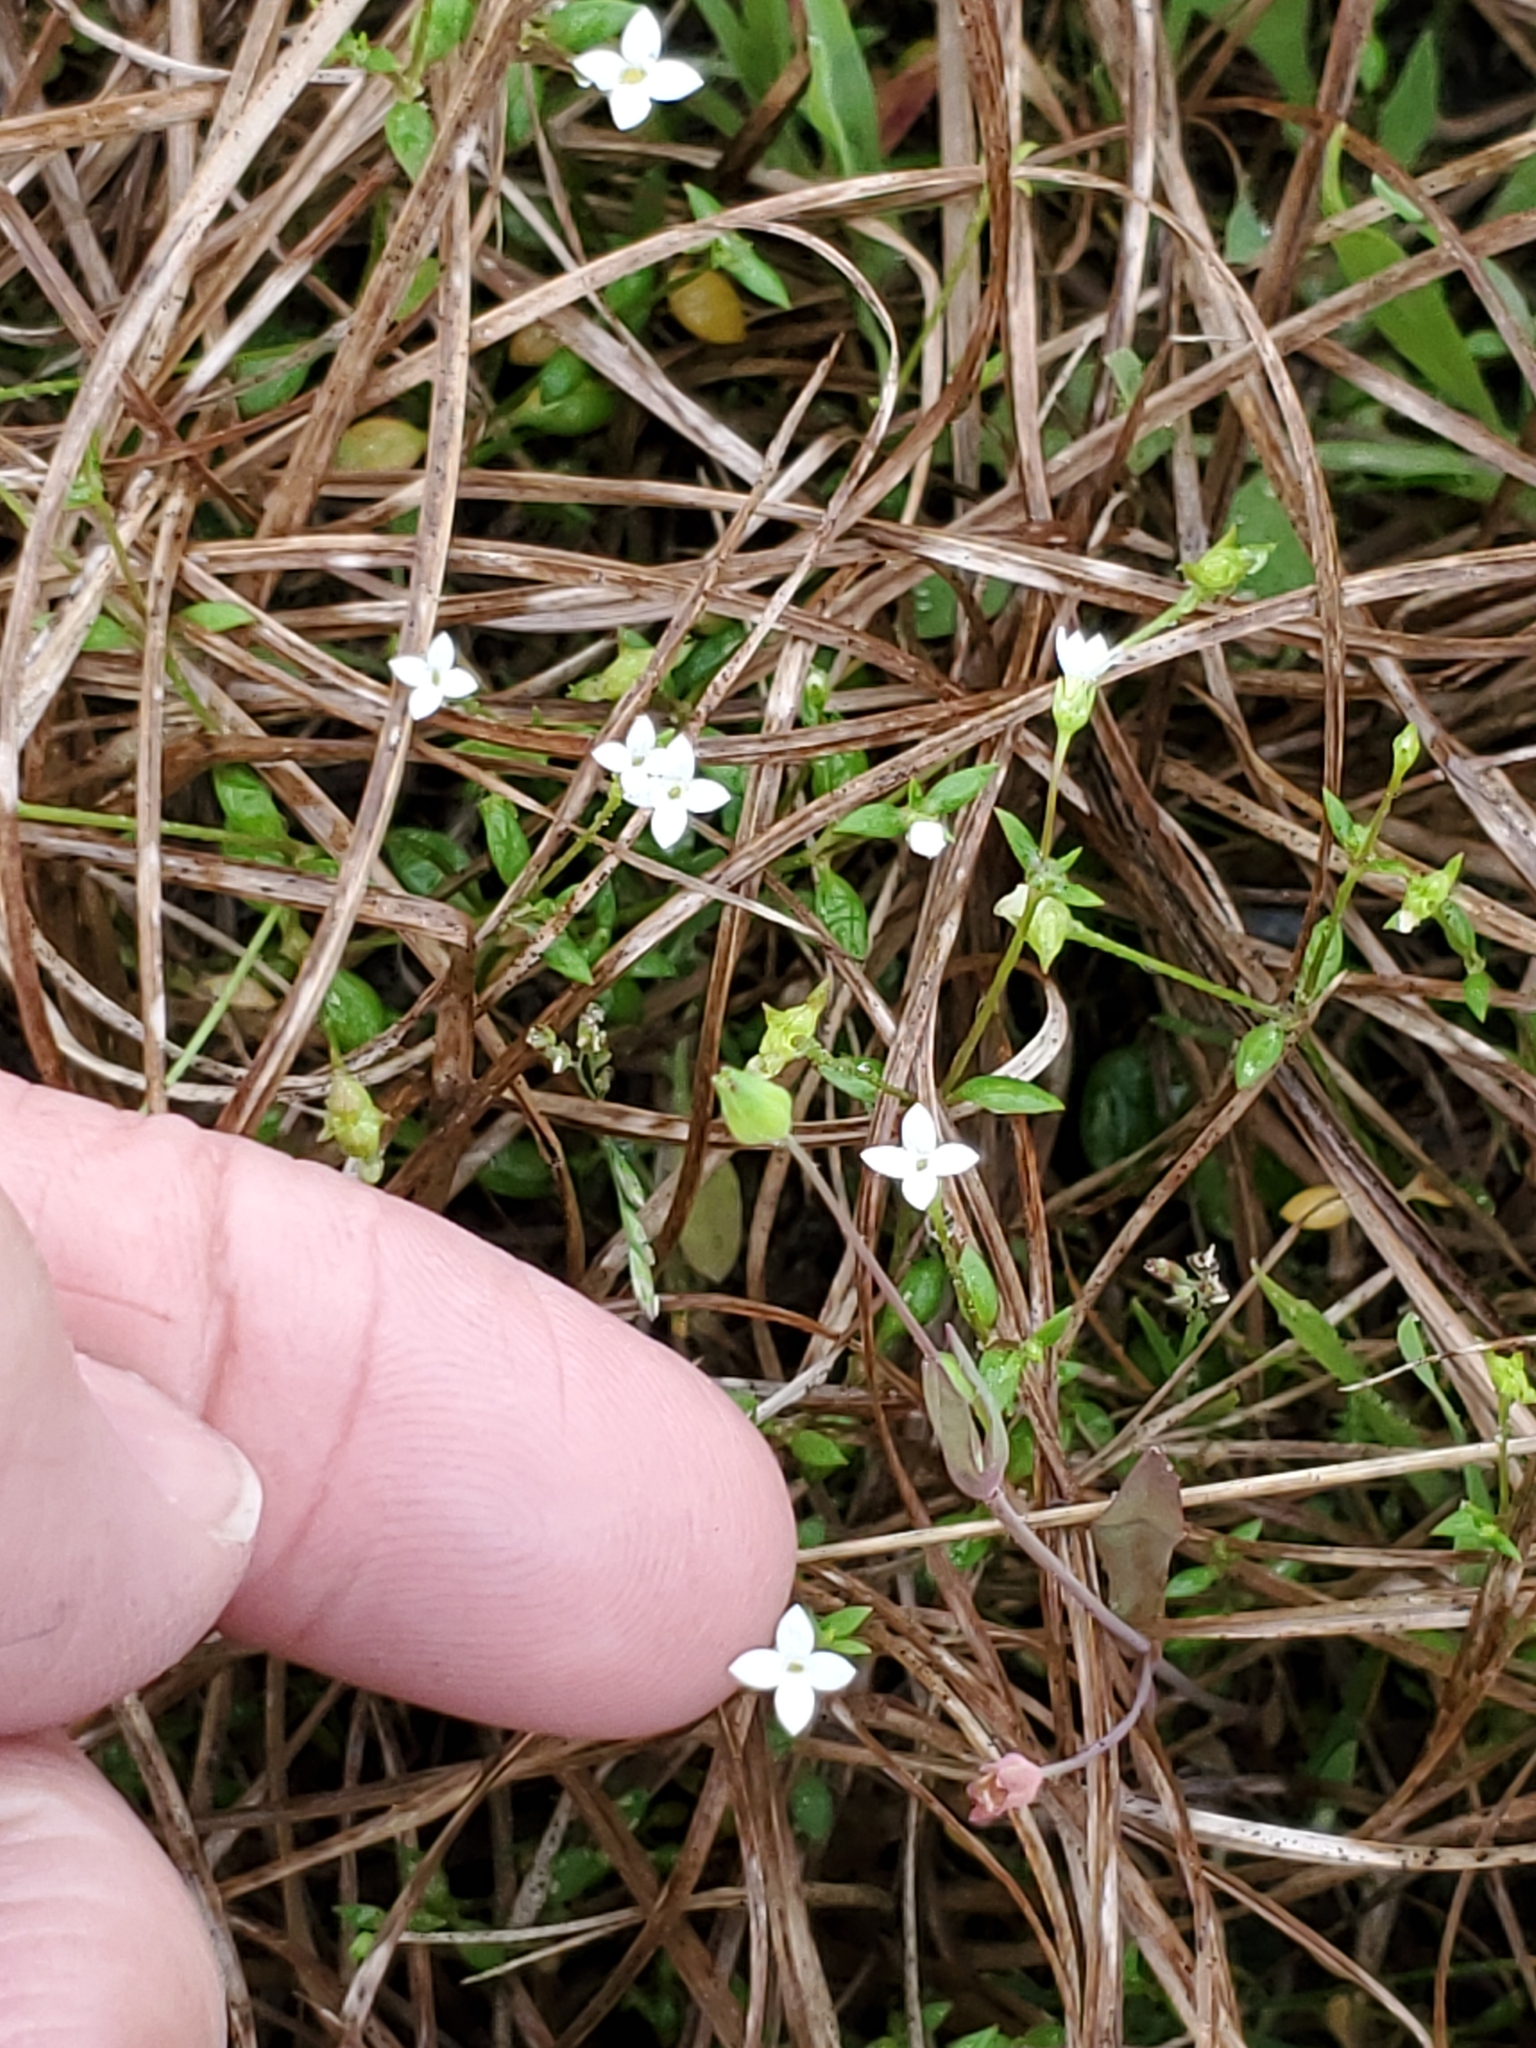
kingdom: Plantae
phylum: Tracheophyta
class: Magnoliopsida
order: Gentianales
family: Rubiaceae
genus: Houstonia
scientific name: Houstonia micrantha
